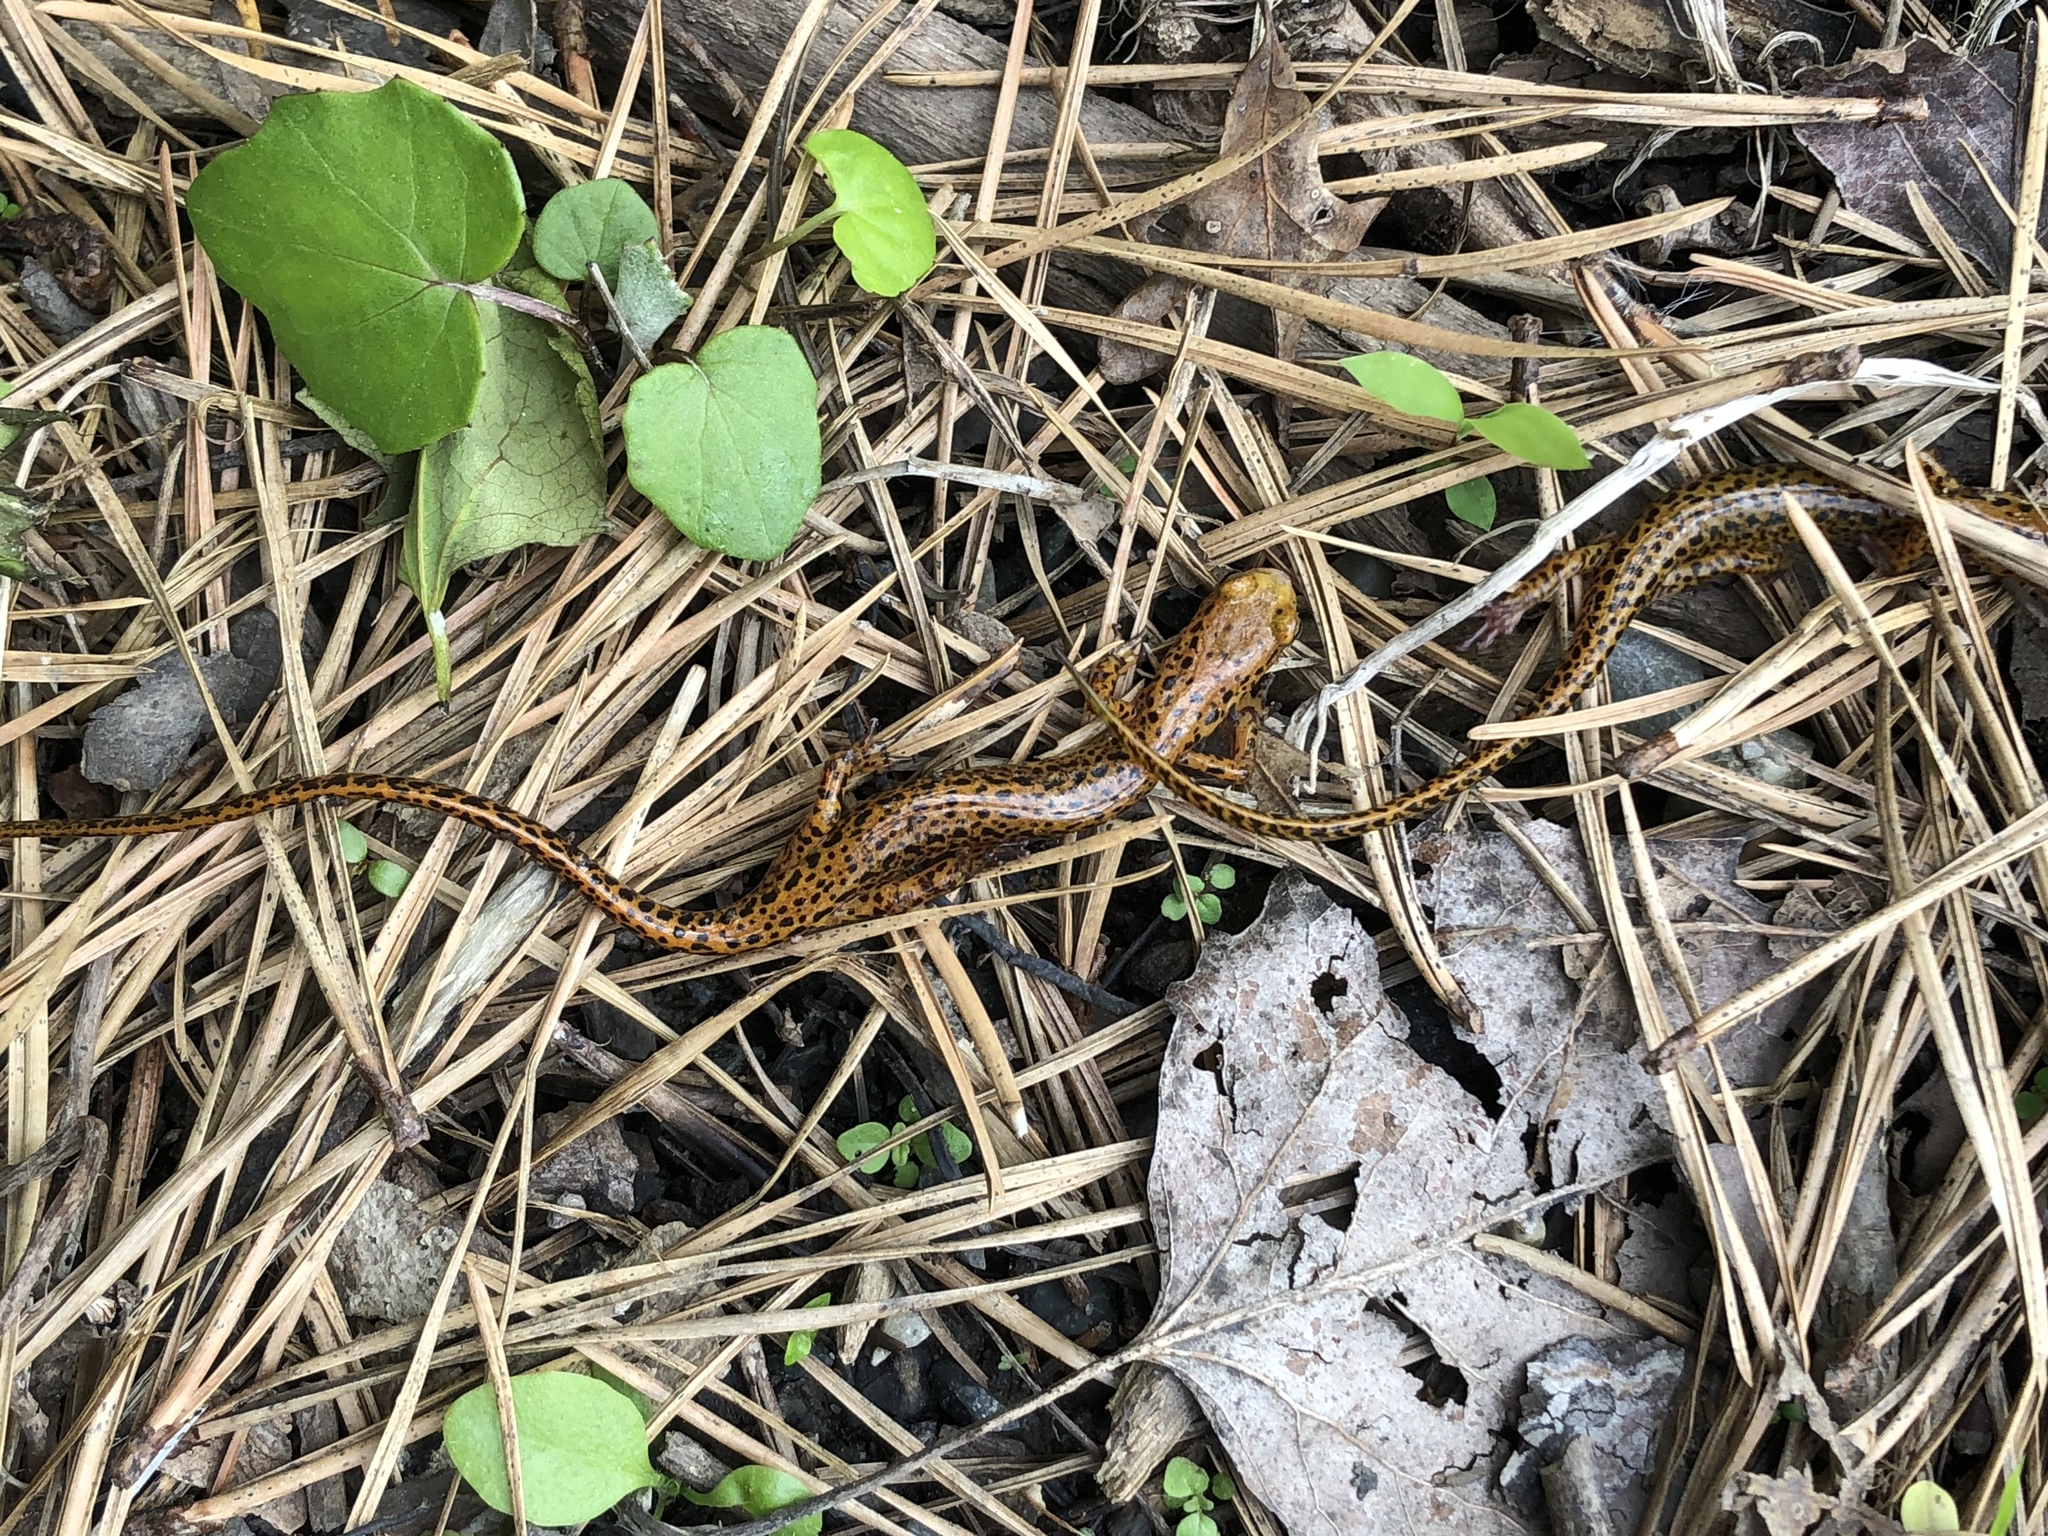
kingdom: Animalia
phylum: Chordata
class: Amphibia
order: Caudata
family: Plethodontidae
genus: Eurycea
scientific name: Eurycea longicauda
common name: Long-tailed salamander
